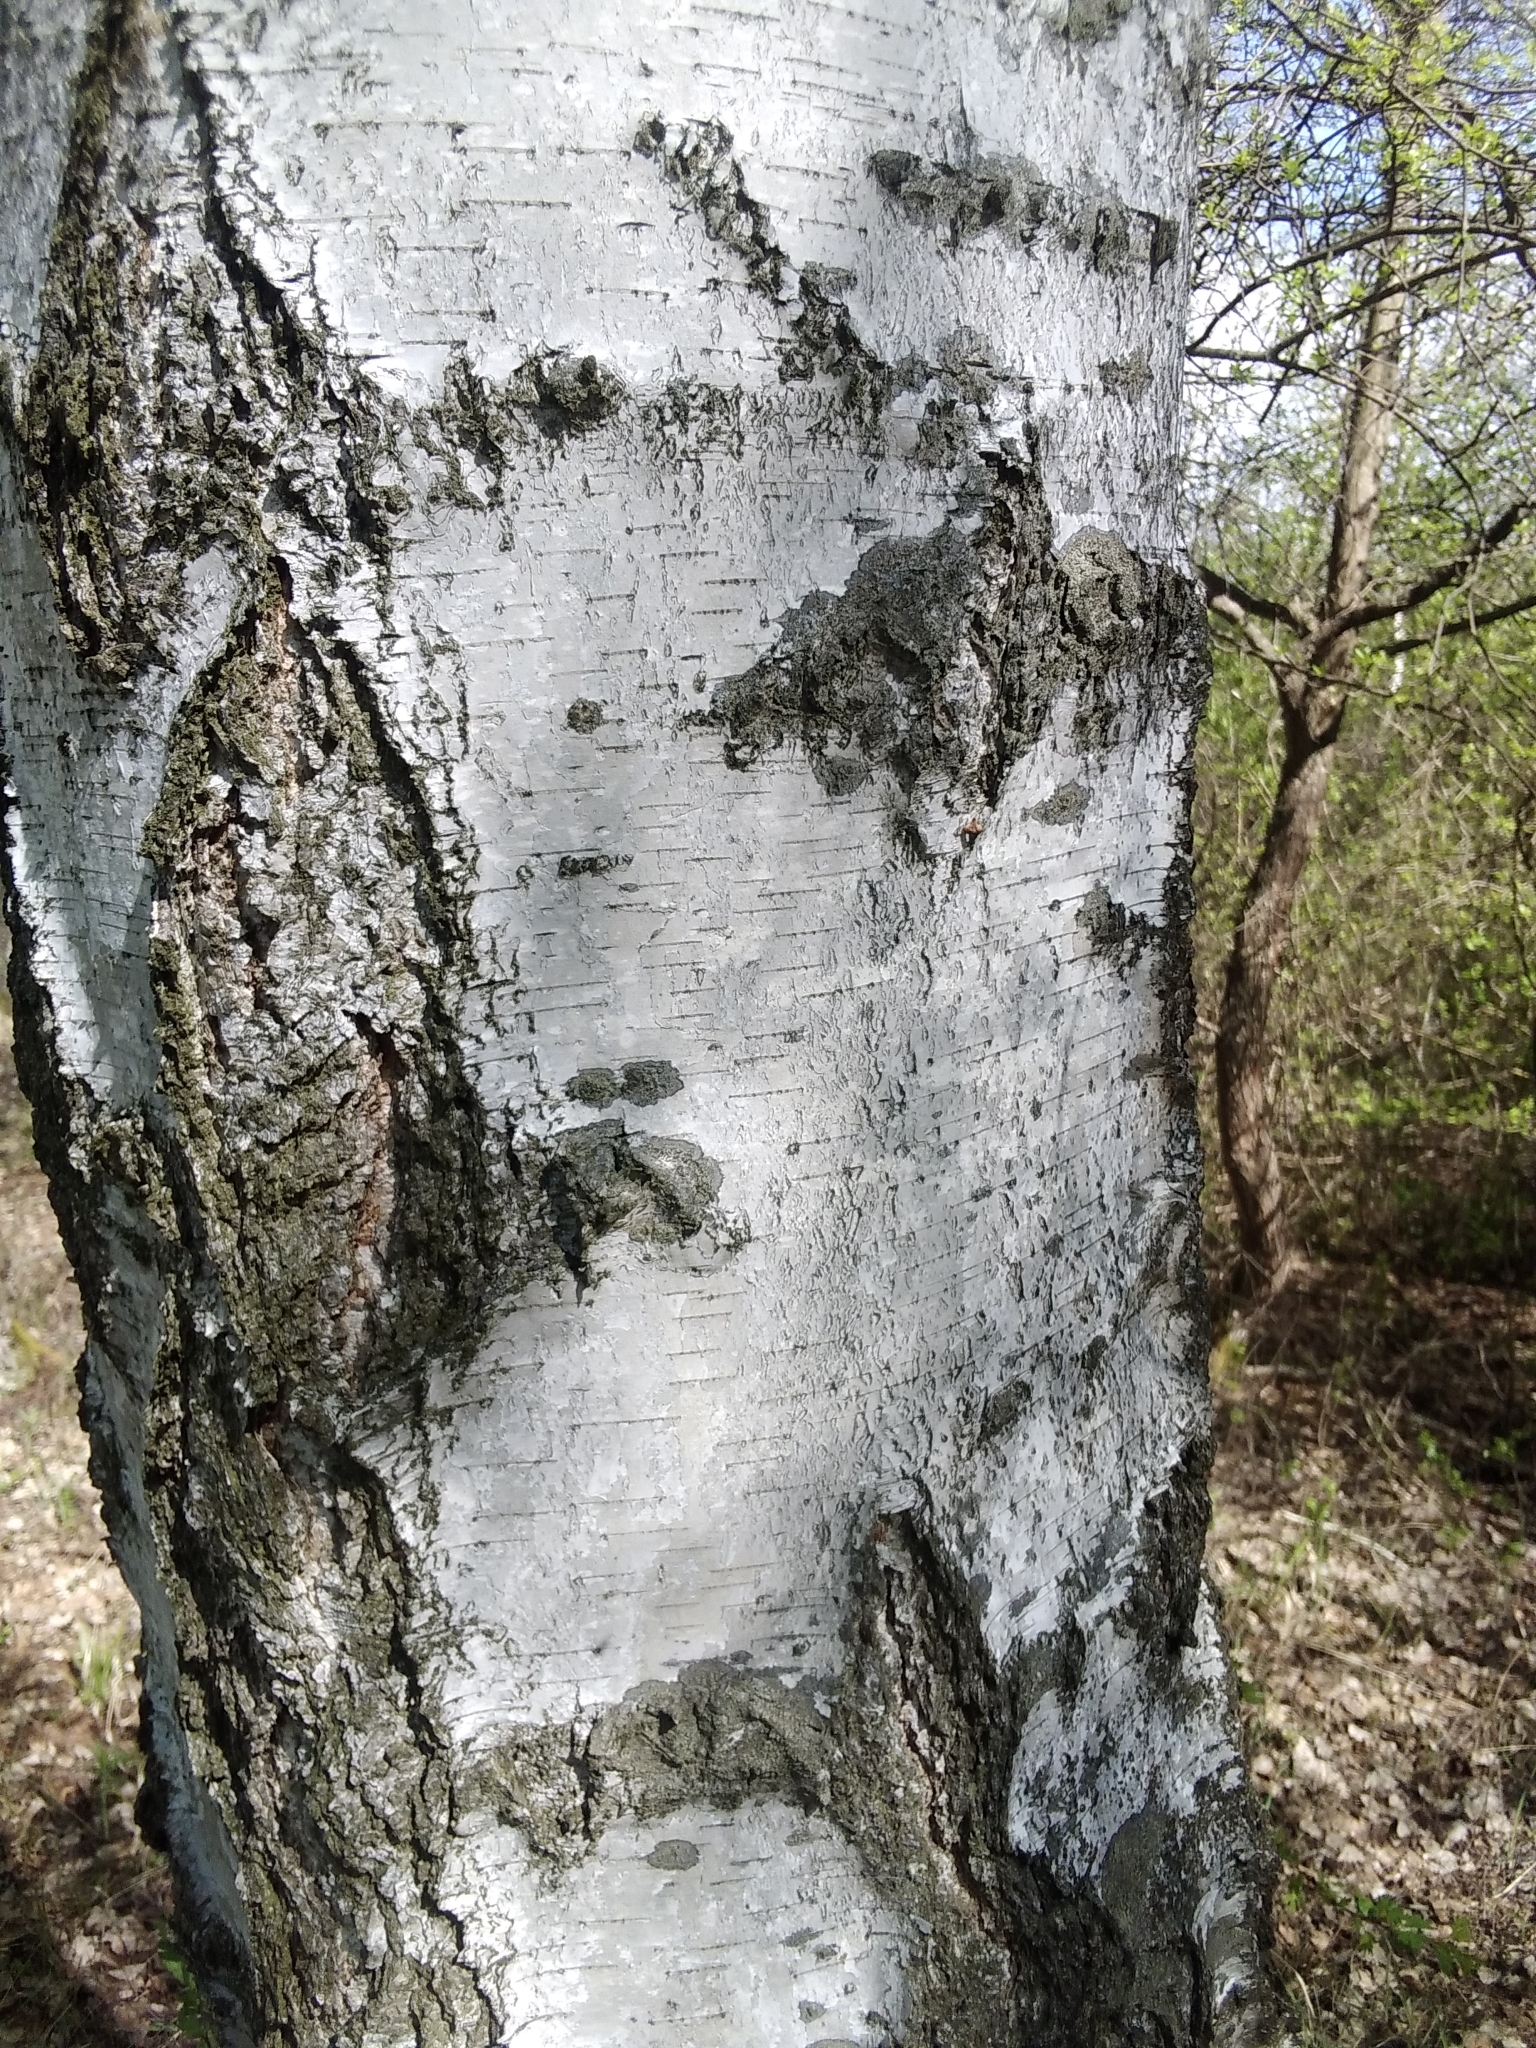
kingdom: Plantae
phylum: Tracheophyta
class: Magnoliopsida
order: Fagales
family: Betulaceae
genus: Betula
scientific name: Betula pendula
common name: Silver birch
